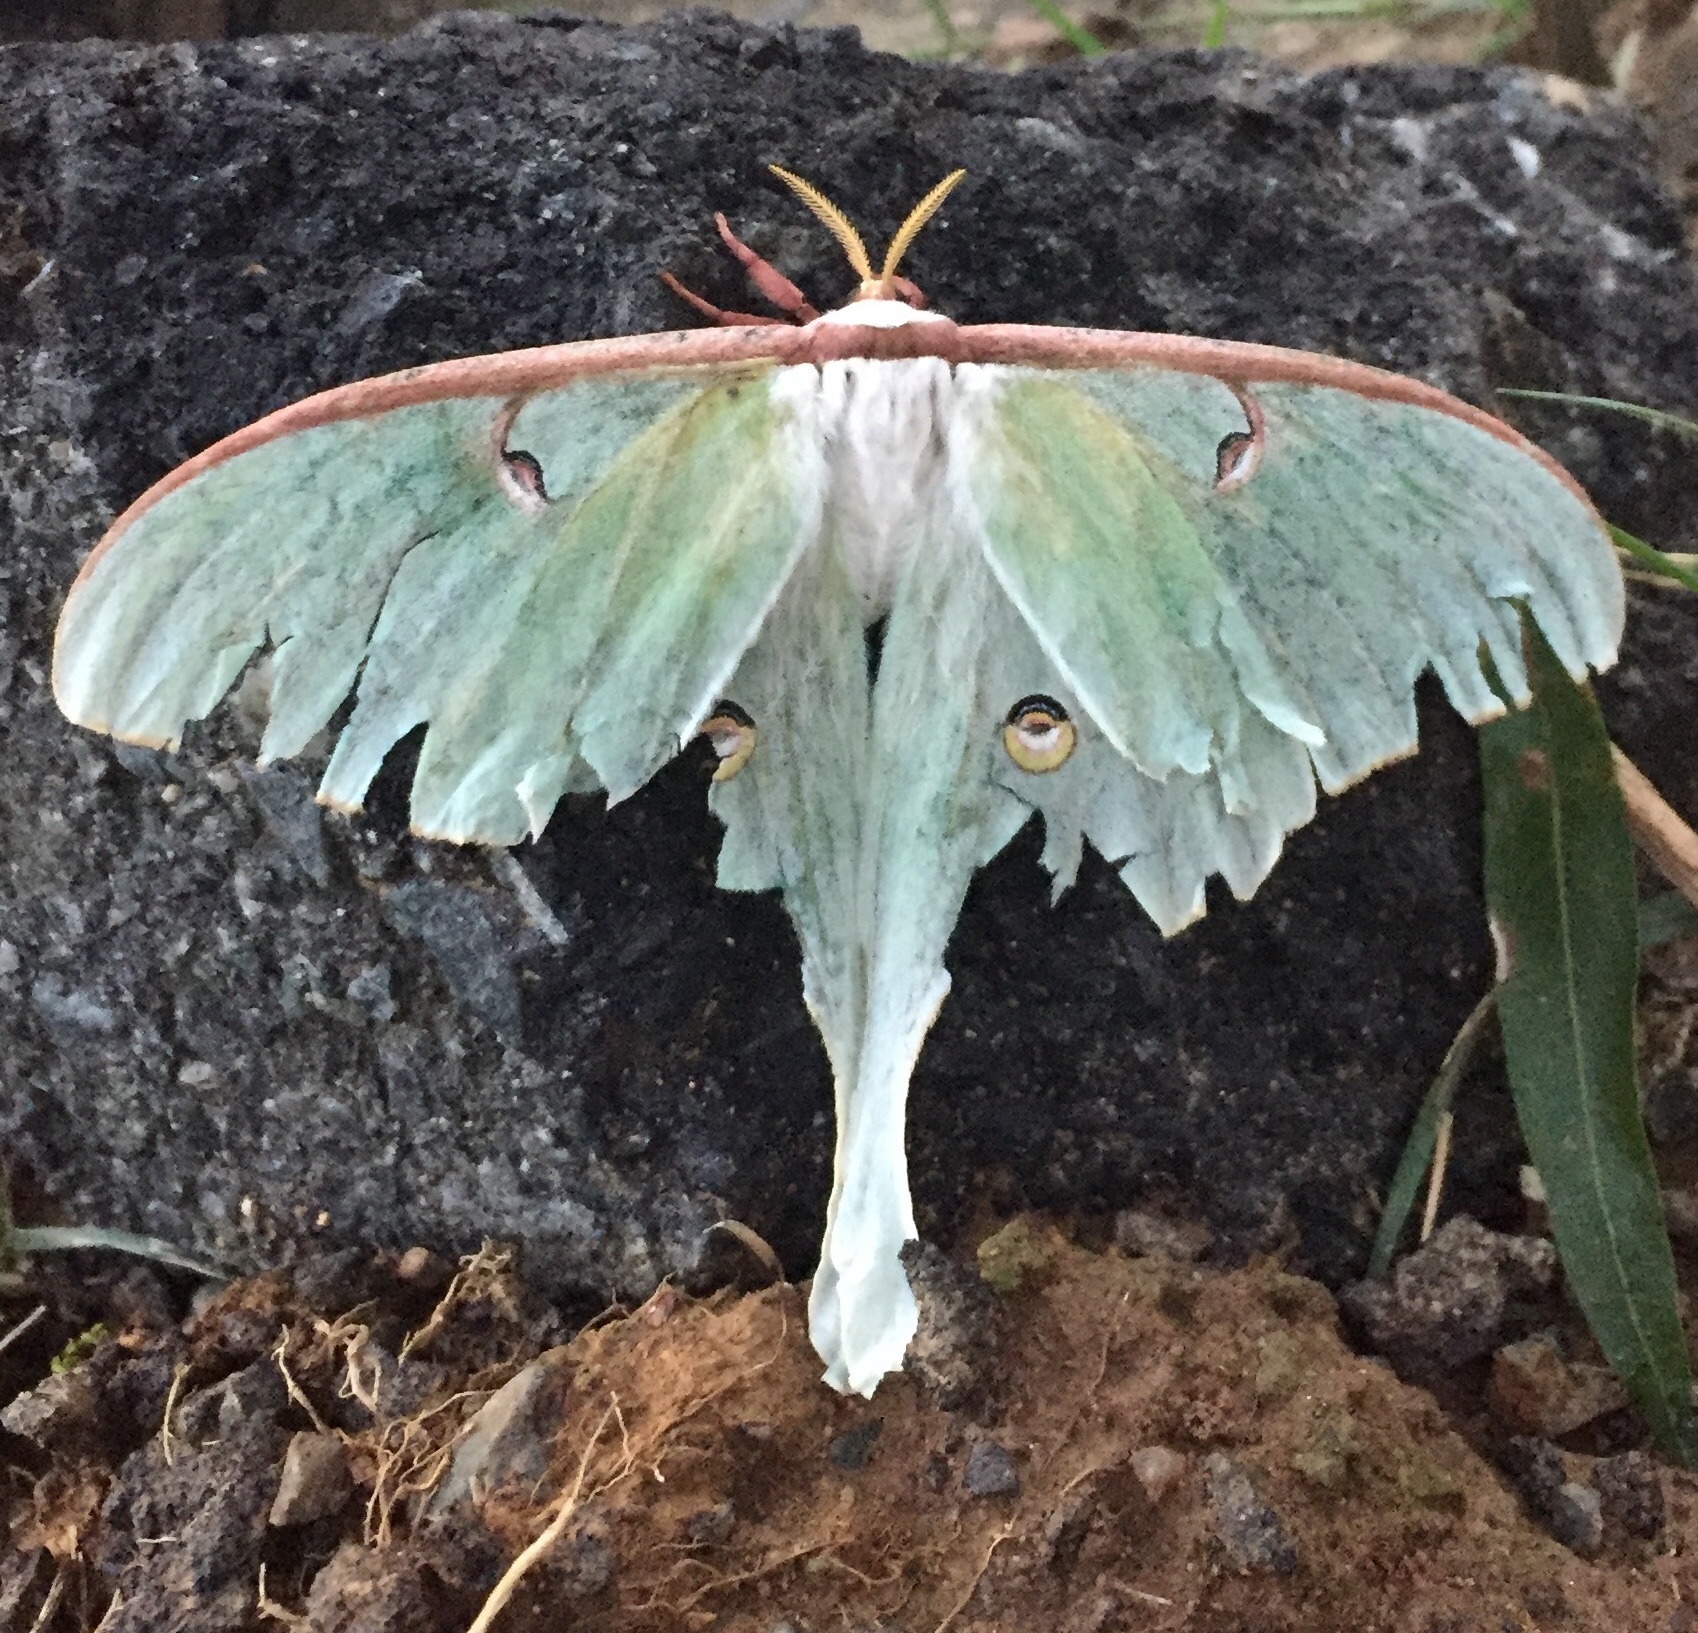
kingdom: Animalia
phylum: Arthropoda
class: Insecta
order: Lepidoptera
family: Saturniidae
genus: Actias
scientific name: Actias luna
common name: Luna moth
